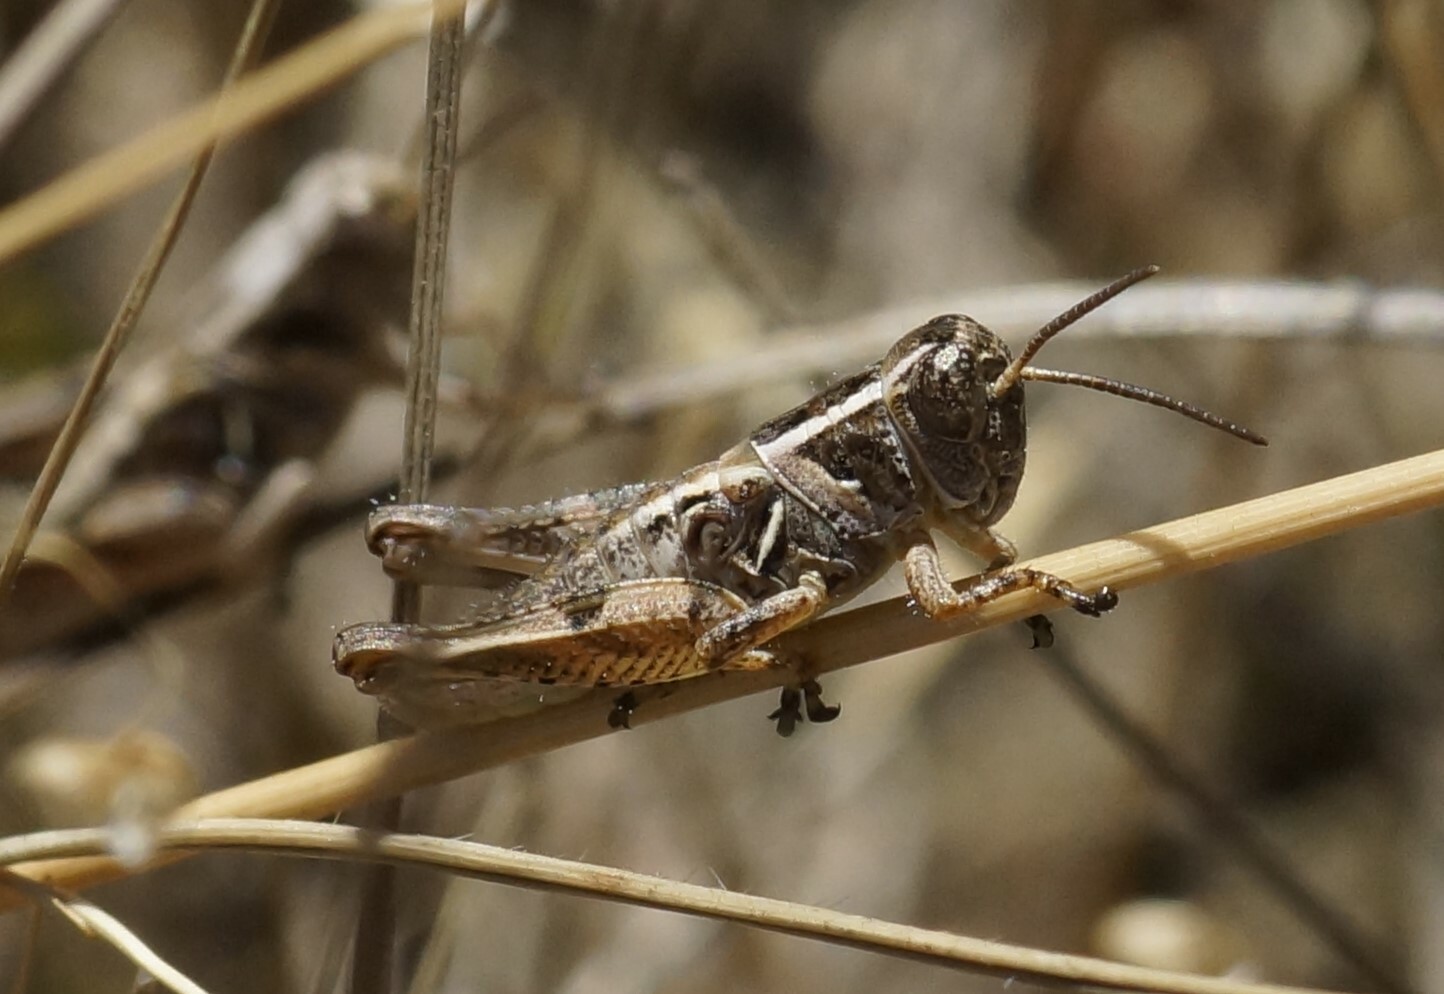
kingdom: Animalia
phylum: Arthropoda
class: Insecta
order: Orthoptera
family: Acrididae
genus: Brachyexarna
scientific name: Brachyexarna lobipennis
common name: Stripe-winged meadow grasshopper
